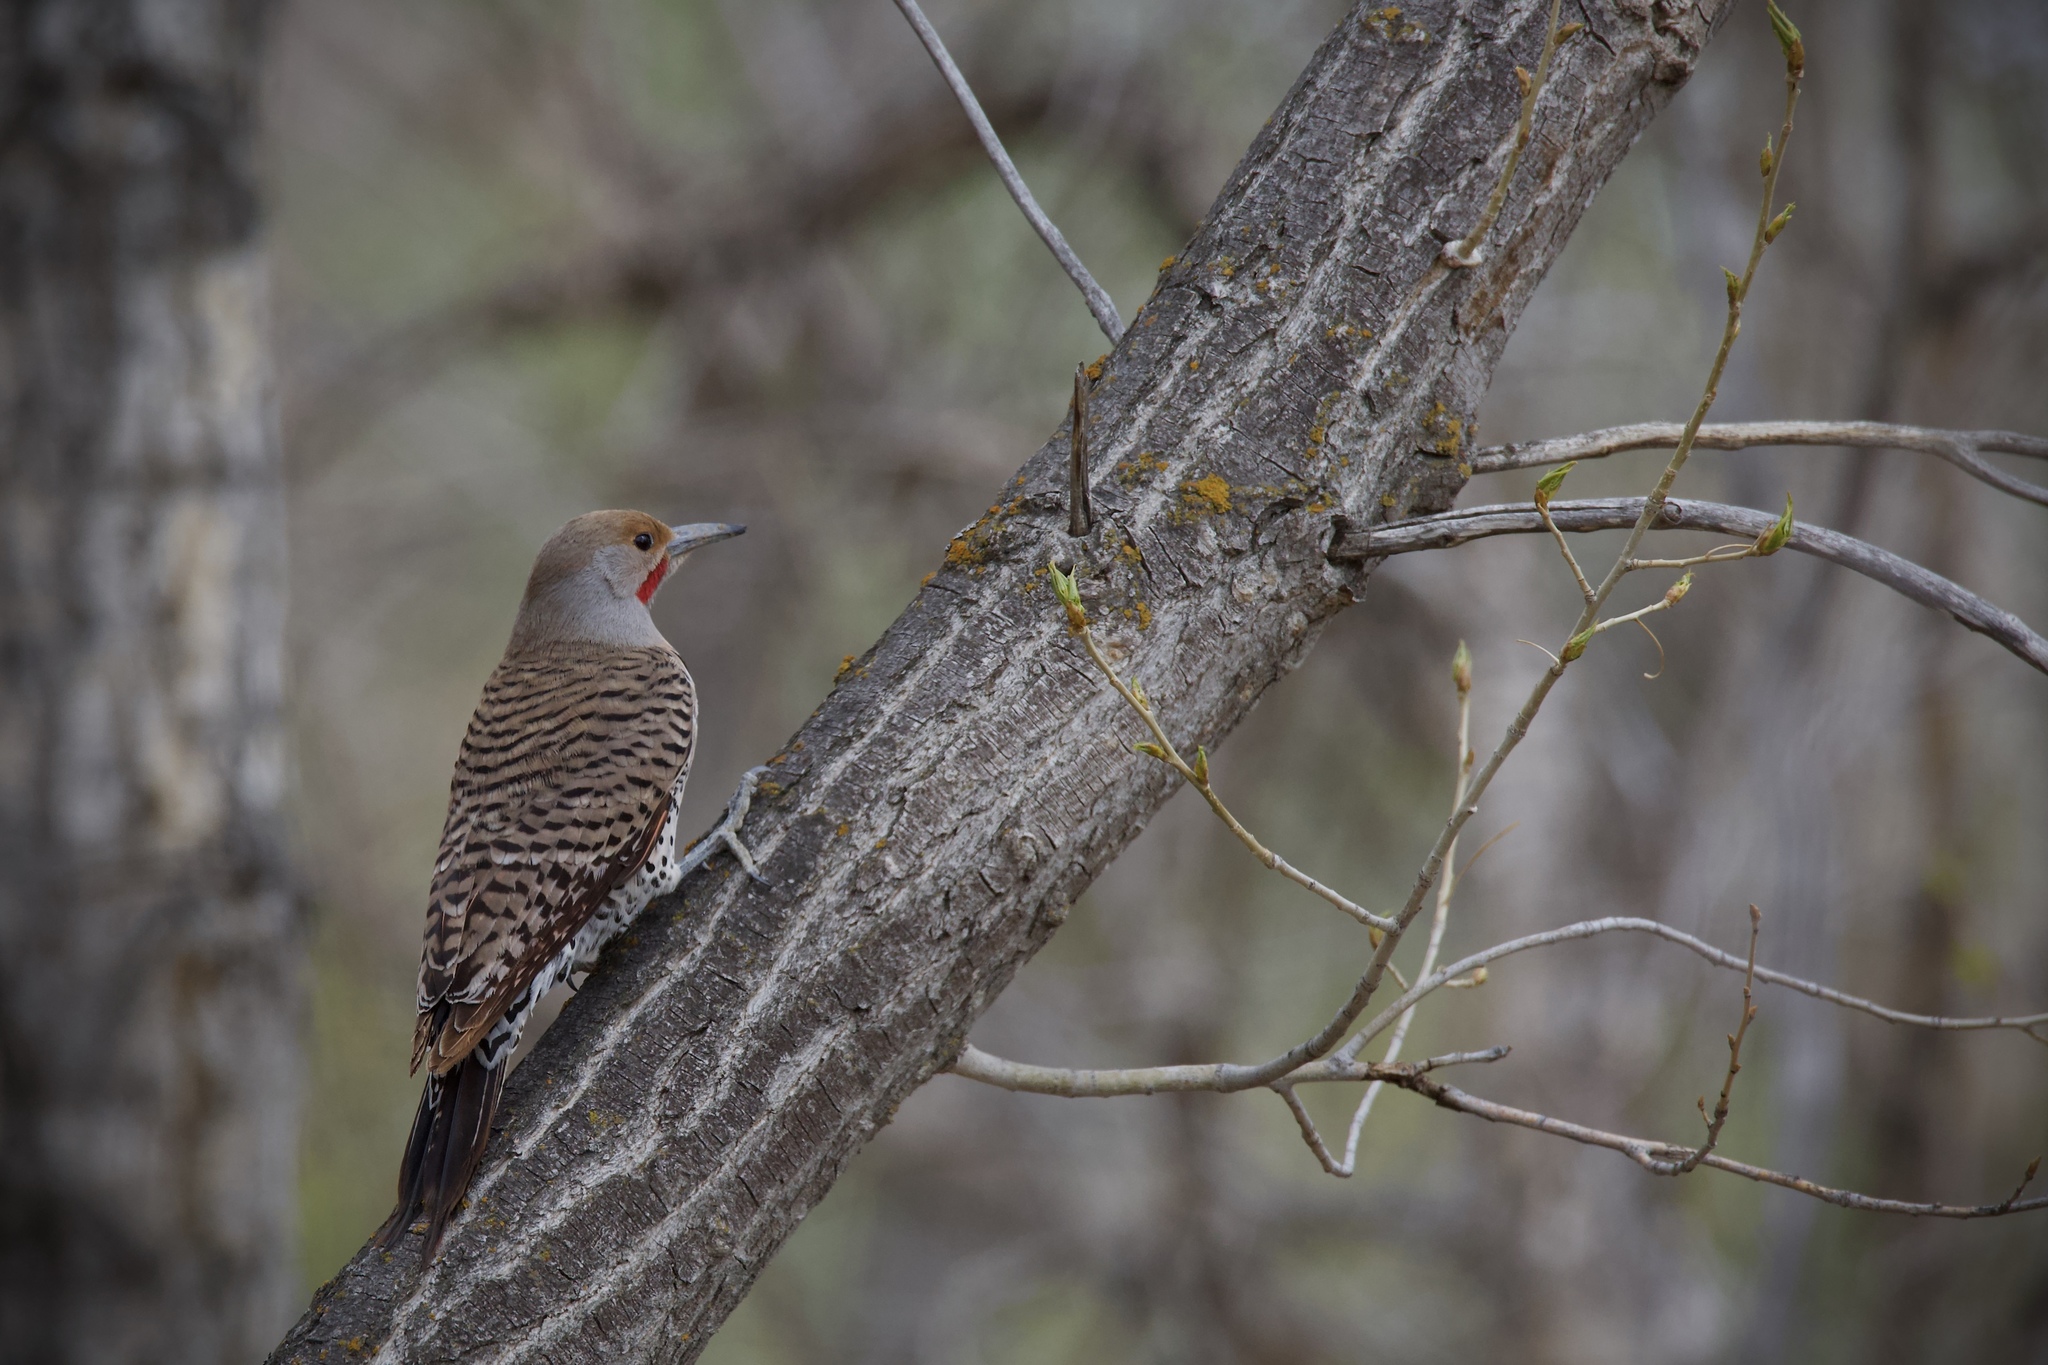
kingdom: Animalia
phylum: Chordata
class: Aves
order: Piciformes
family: Picidae
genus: Colaptes
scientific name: Colaptes auratus
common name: Northern flicker
